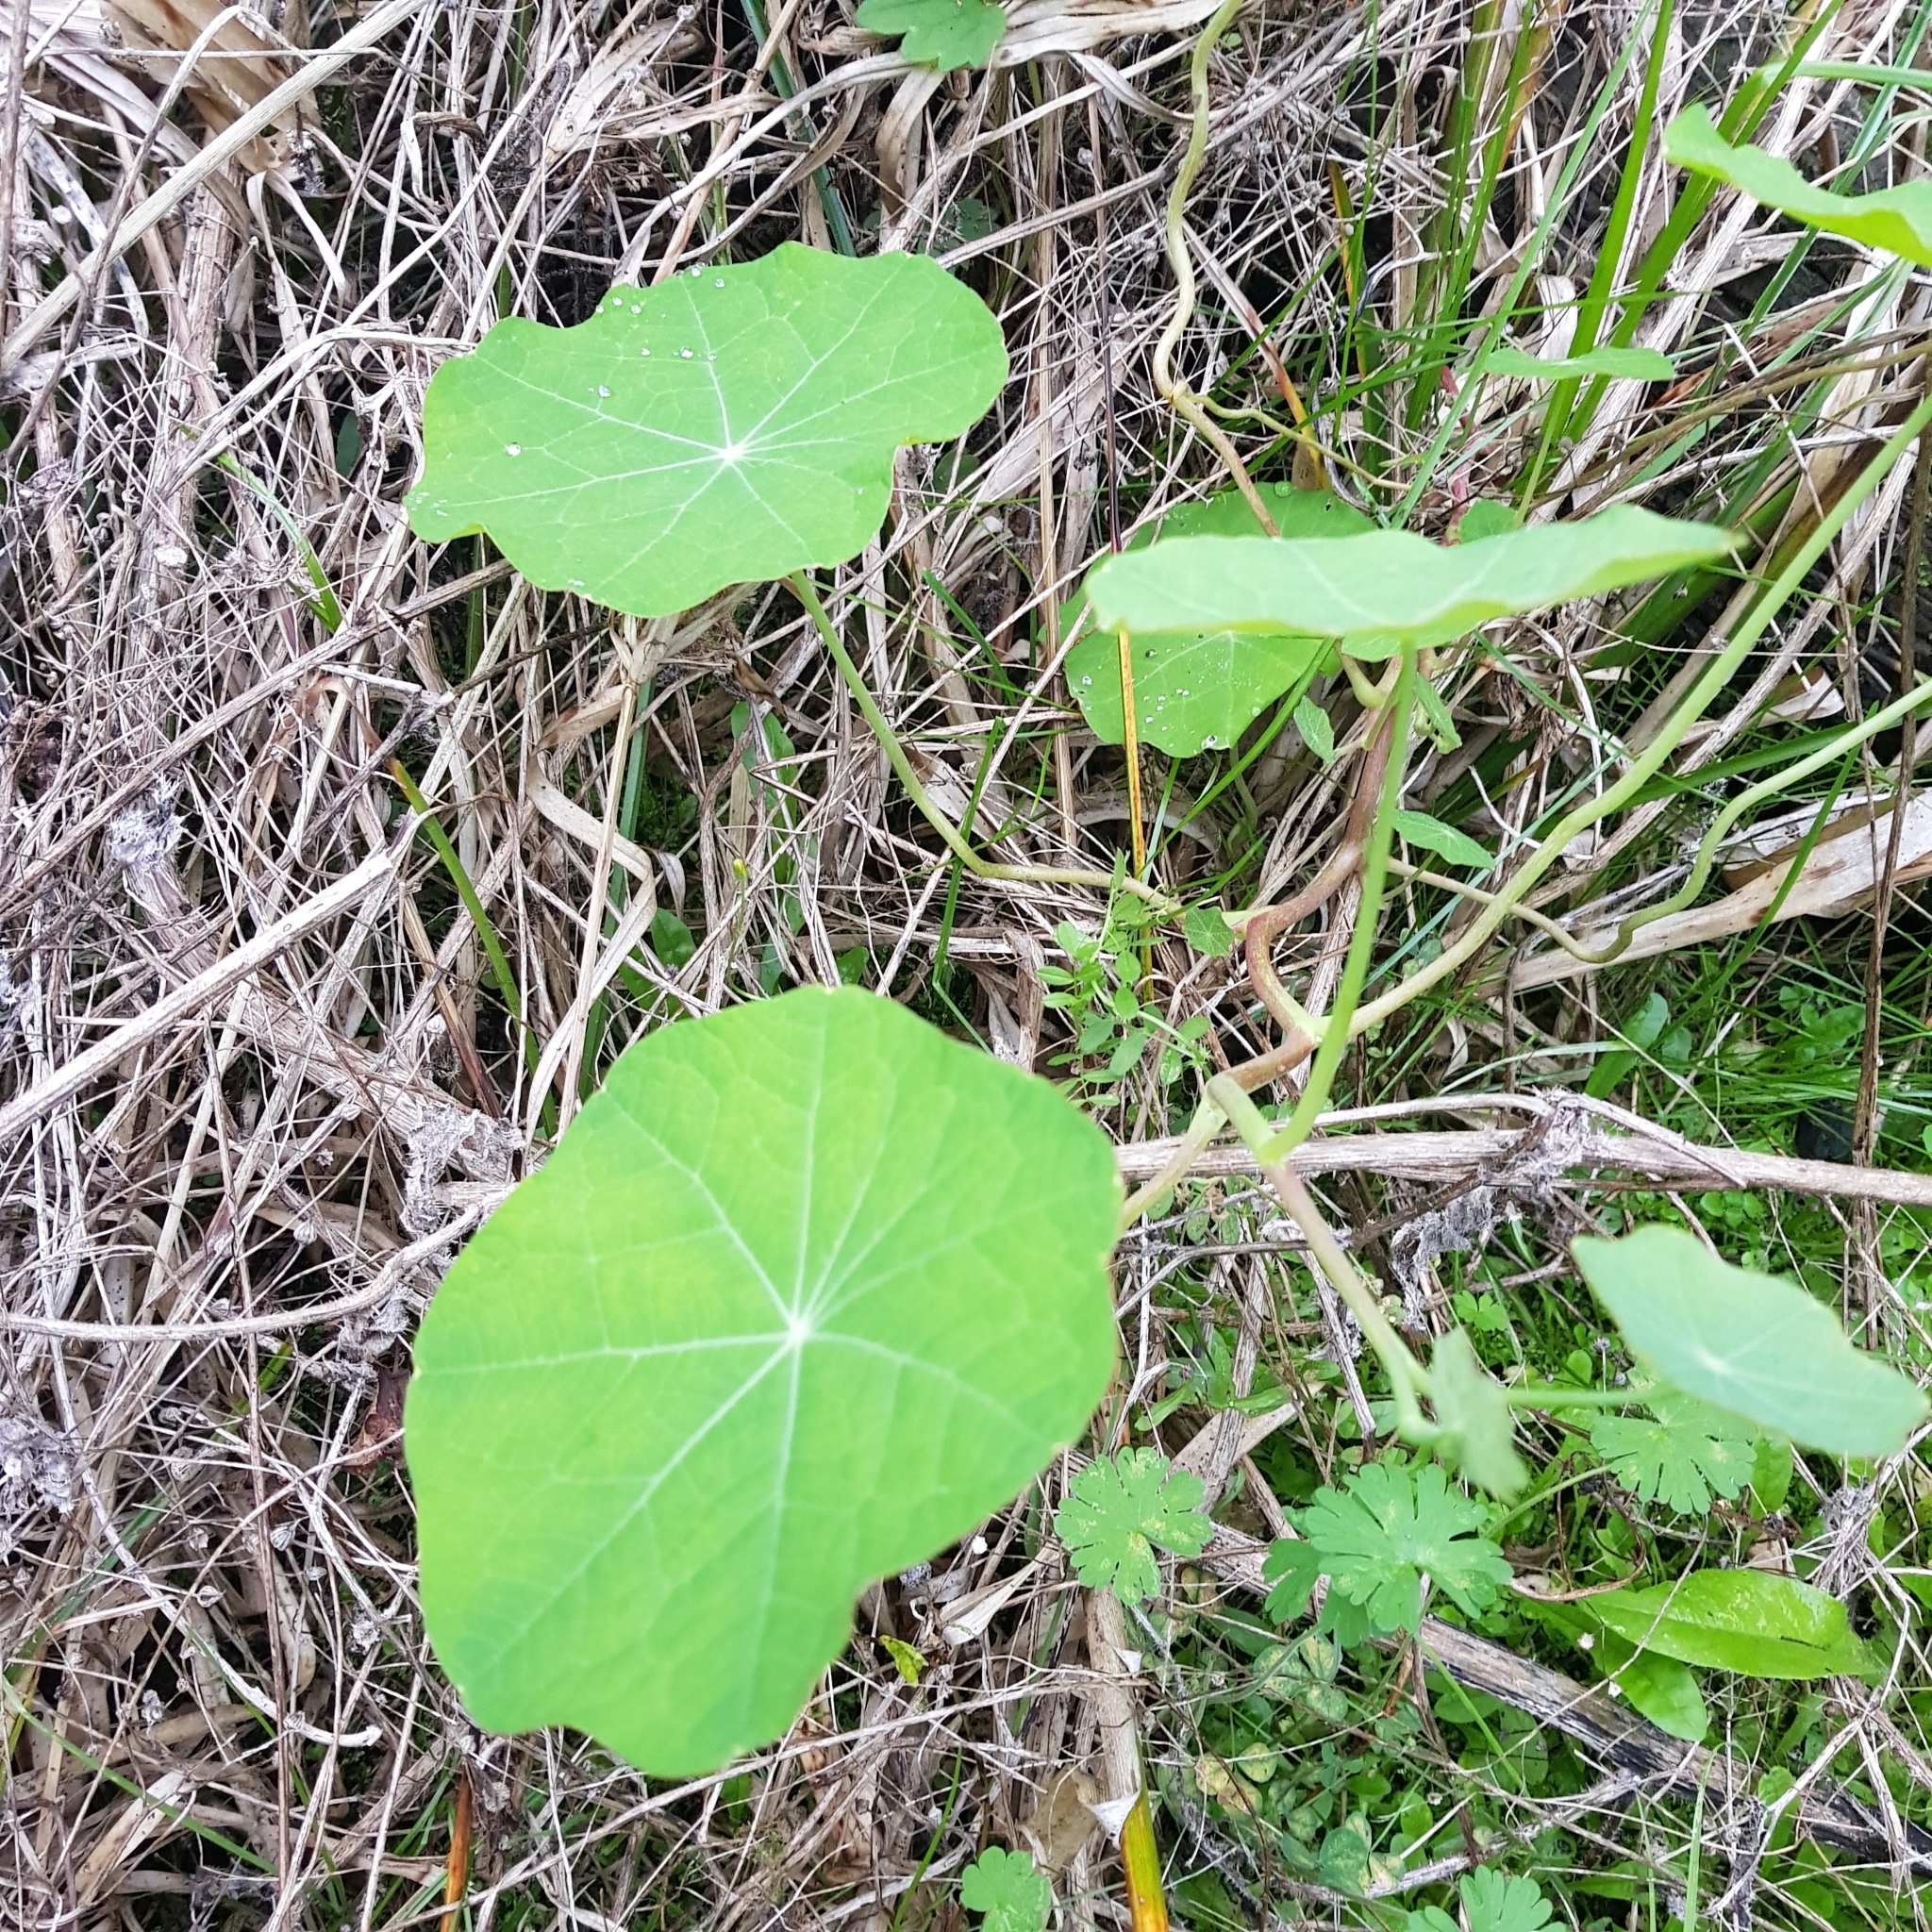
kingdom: Plantae
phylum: Tracheophyta
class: Magnoliopsida
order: Brassicales
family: Tropaeolaceae
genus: Tropaeolum
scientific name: Tropaeolum majus
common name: Nasturtium
